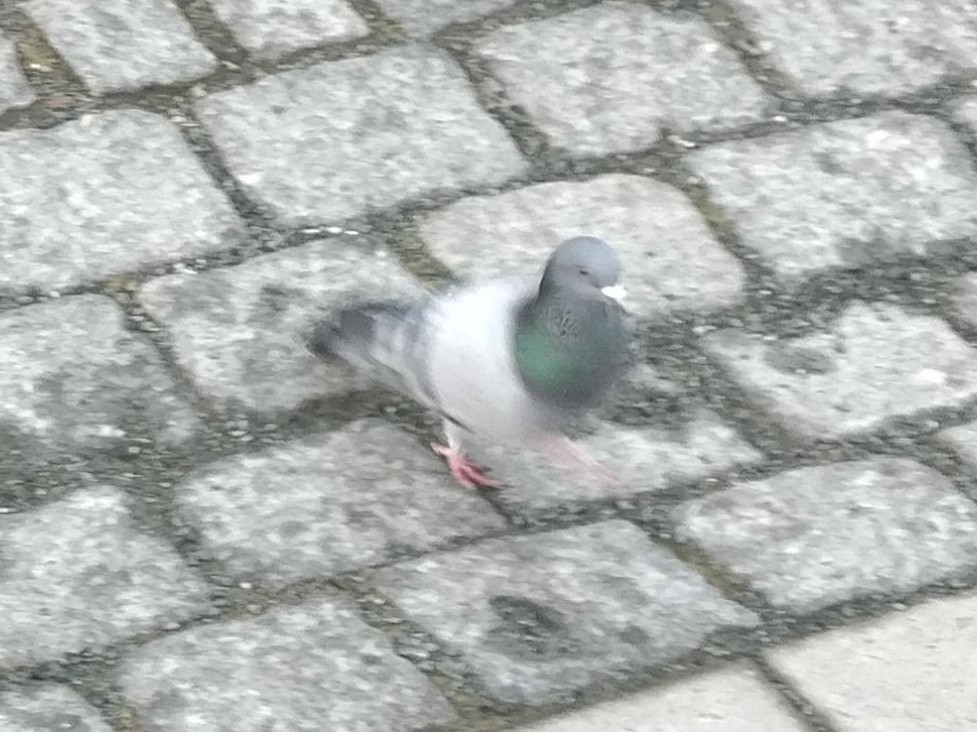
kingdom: Animalia
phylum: Chordata
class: Aves
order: Columbiformes
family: Columbidae
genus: Columba
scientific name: Columba livia
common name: Rock pigeon
